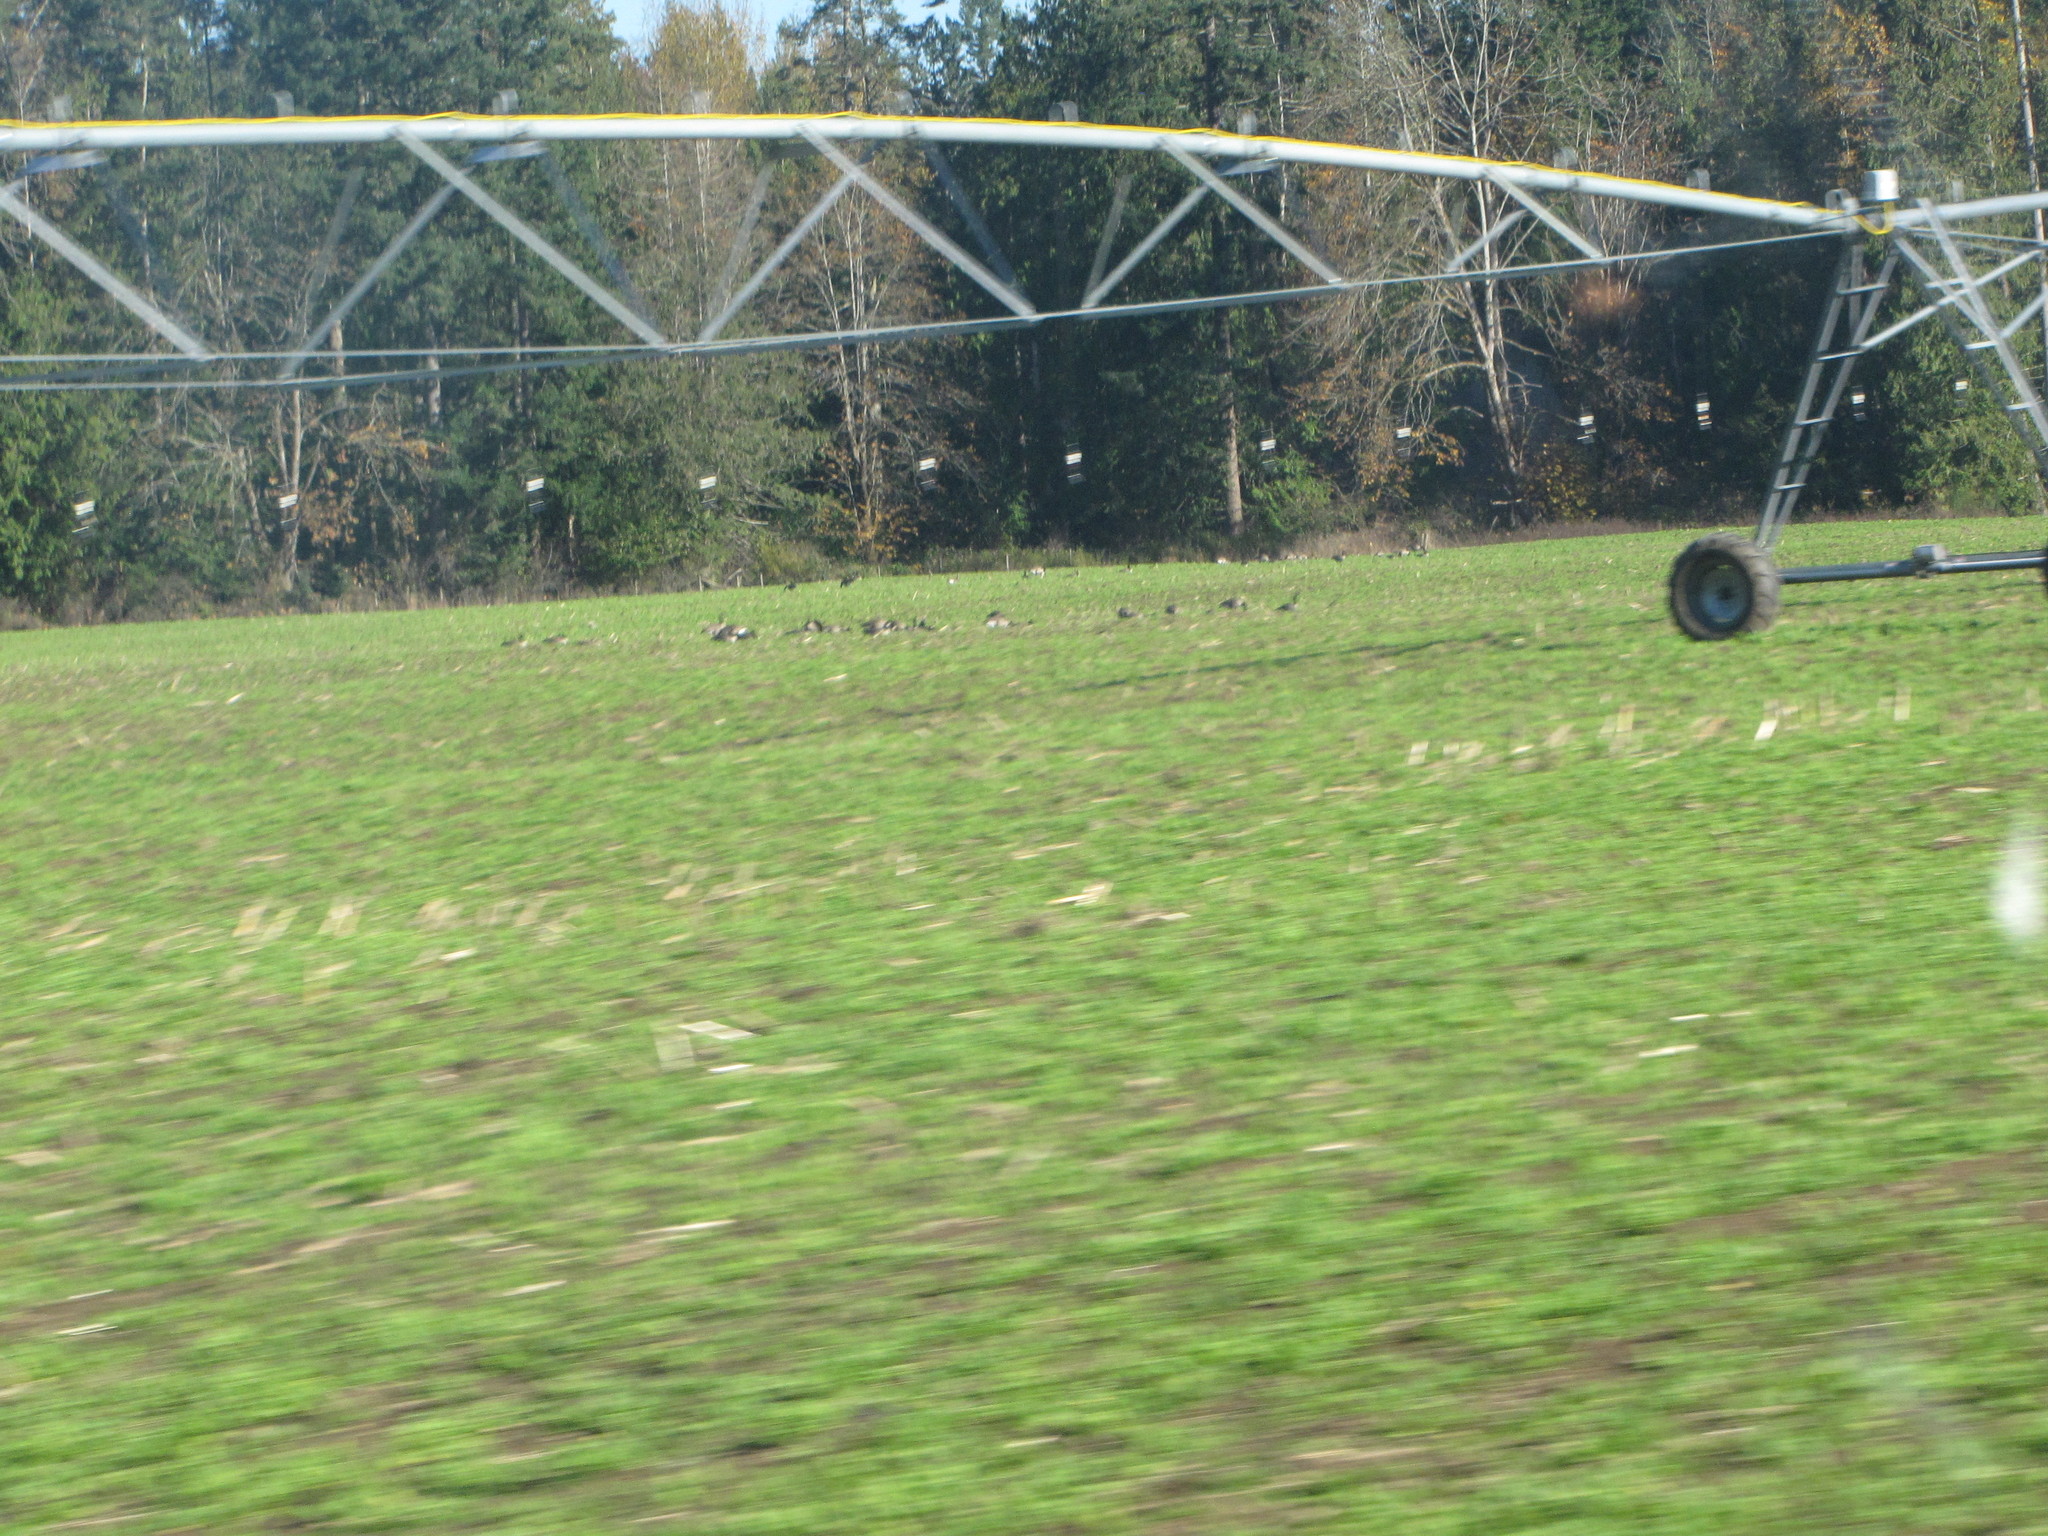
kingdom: Animalia
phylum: Chordata
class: Aves
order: Anseriformes
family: Anatidae
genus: Branta
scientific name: Branta canadensis
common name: Canada goose
